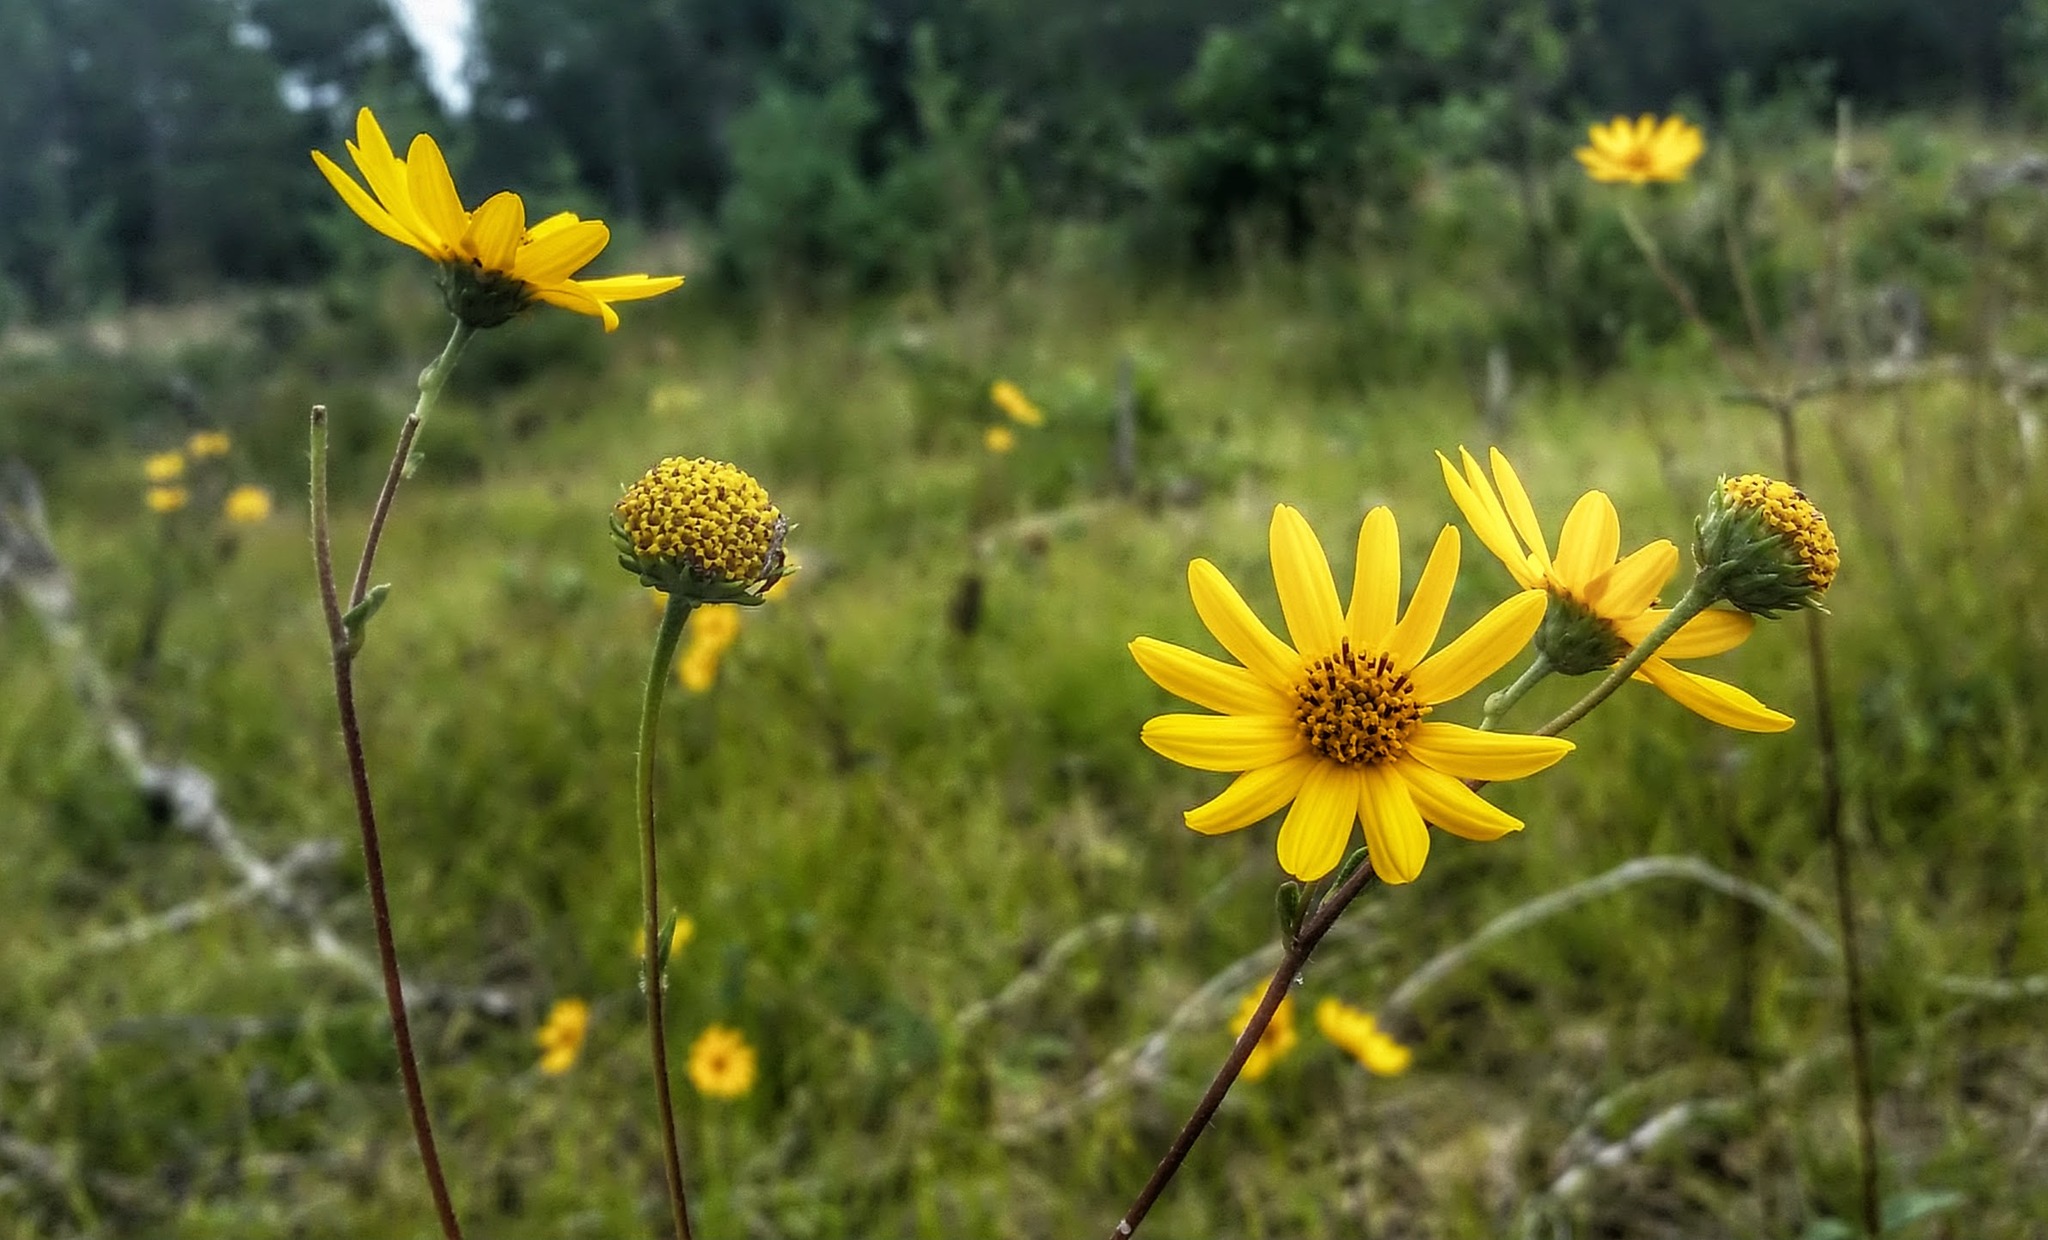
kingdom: Plantae
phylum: Tracheophyta
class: Magnoliopsida
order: Asterales
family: Asteraceae
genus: Helianthus
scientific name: Helianthus occidentalis
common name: Western sunflower
